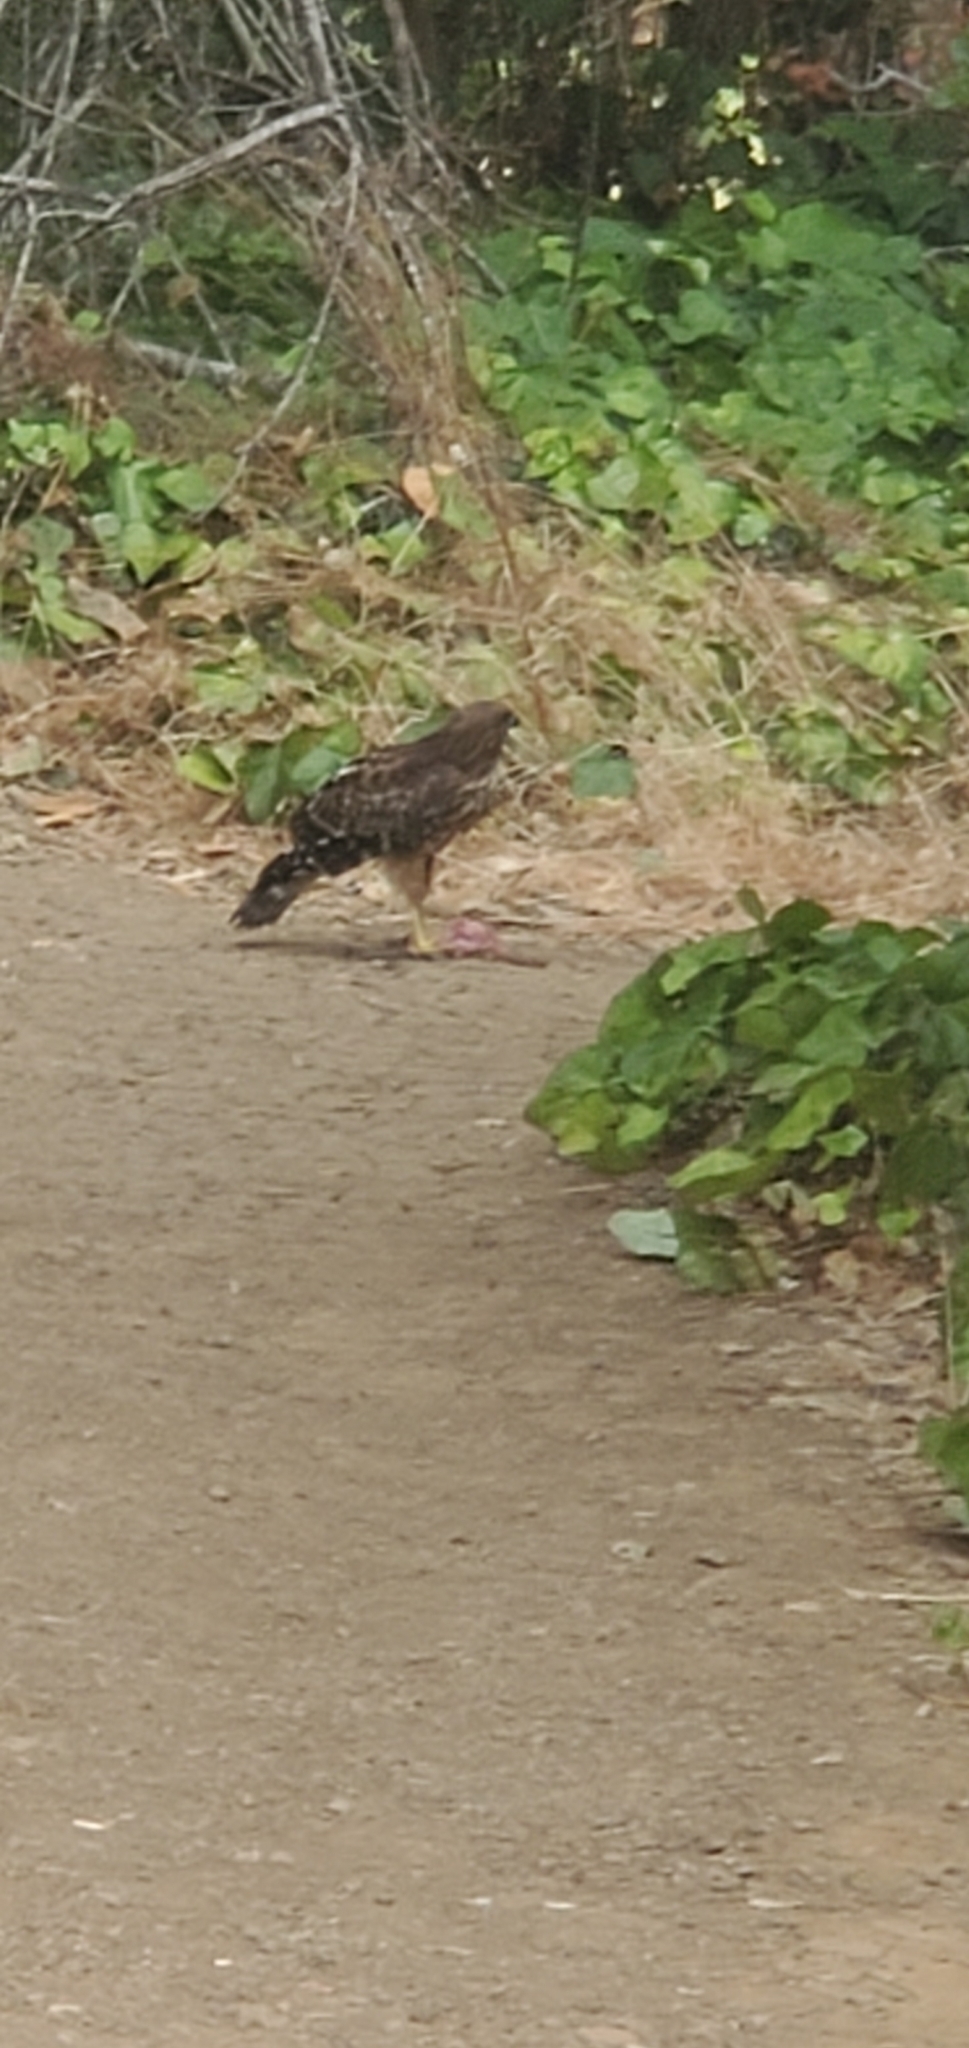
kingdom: Animalia
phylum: Chordata
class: Aves
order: Accipitriformes
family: Accipitridae
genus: Buteo
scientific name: Buteo lineatus
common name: Red-shouldered hawk
